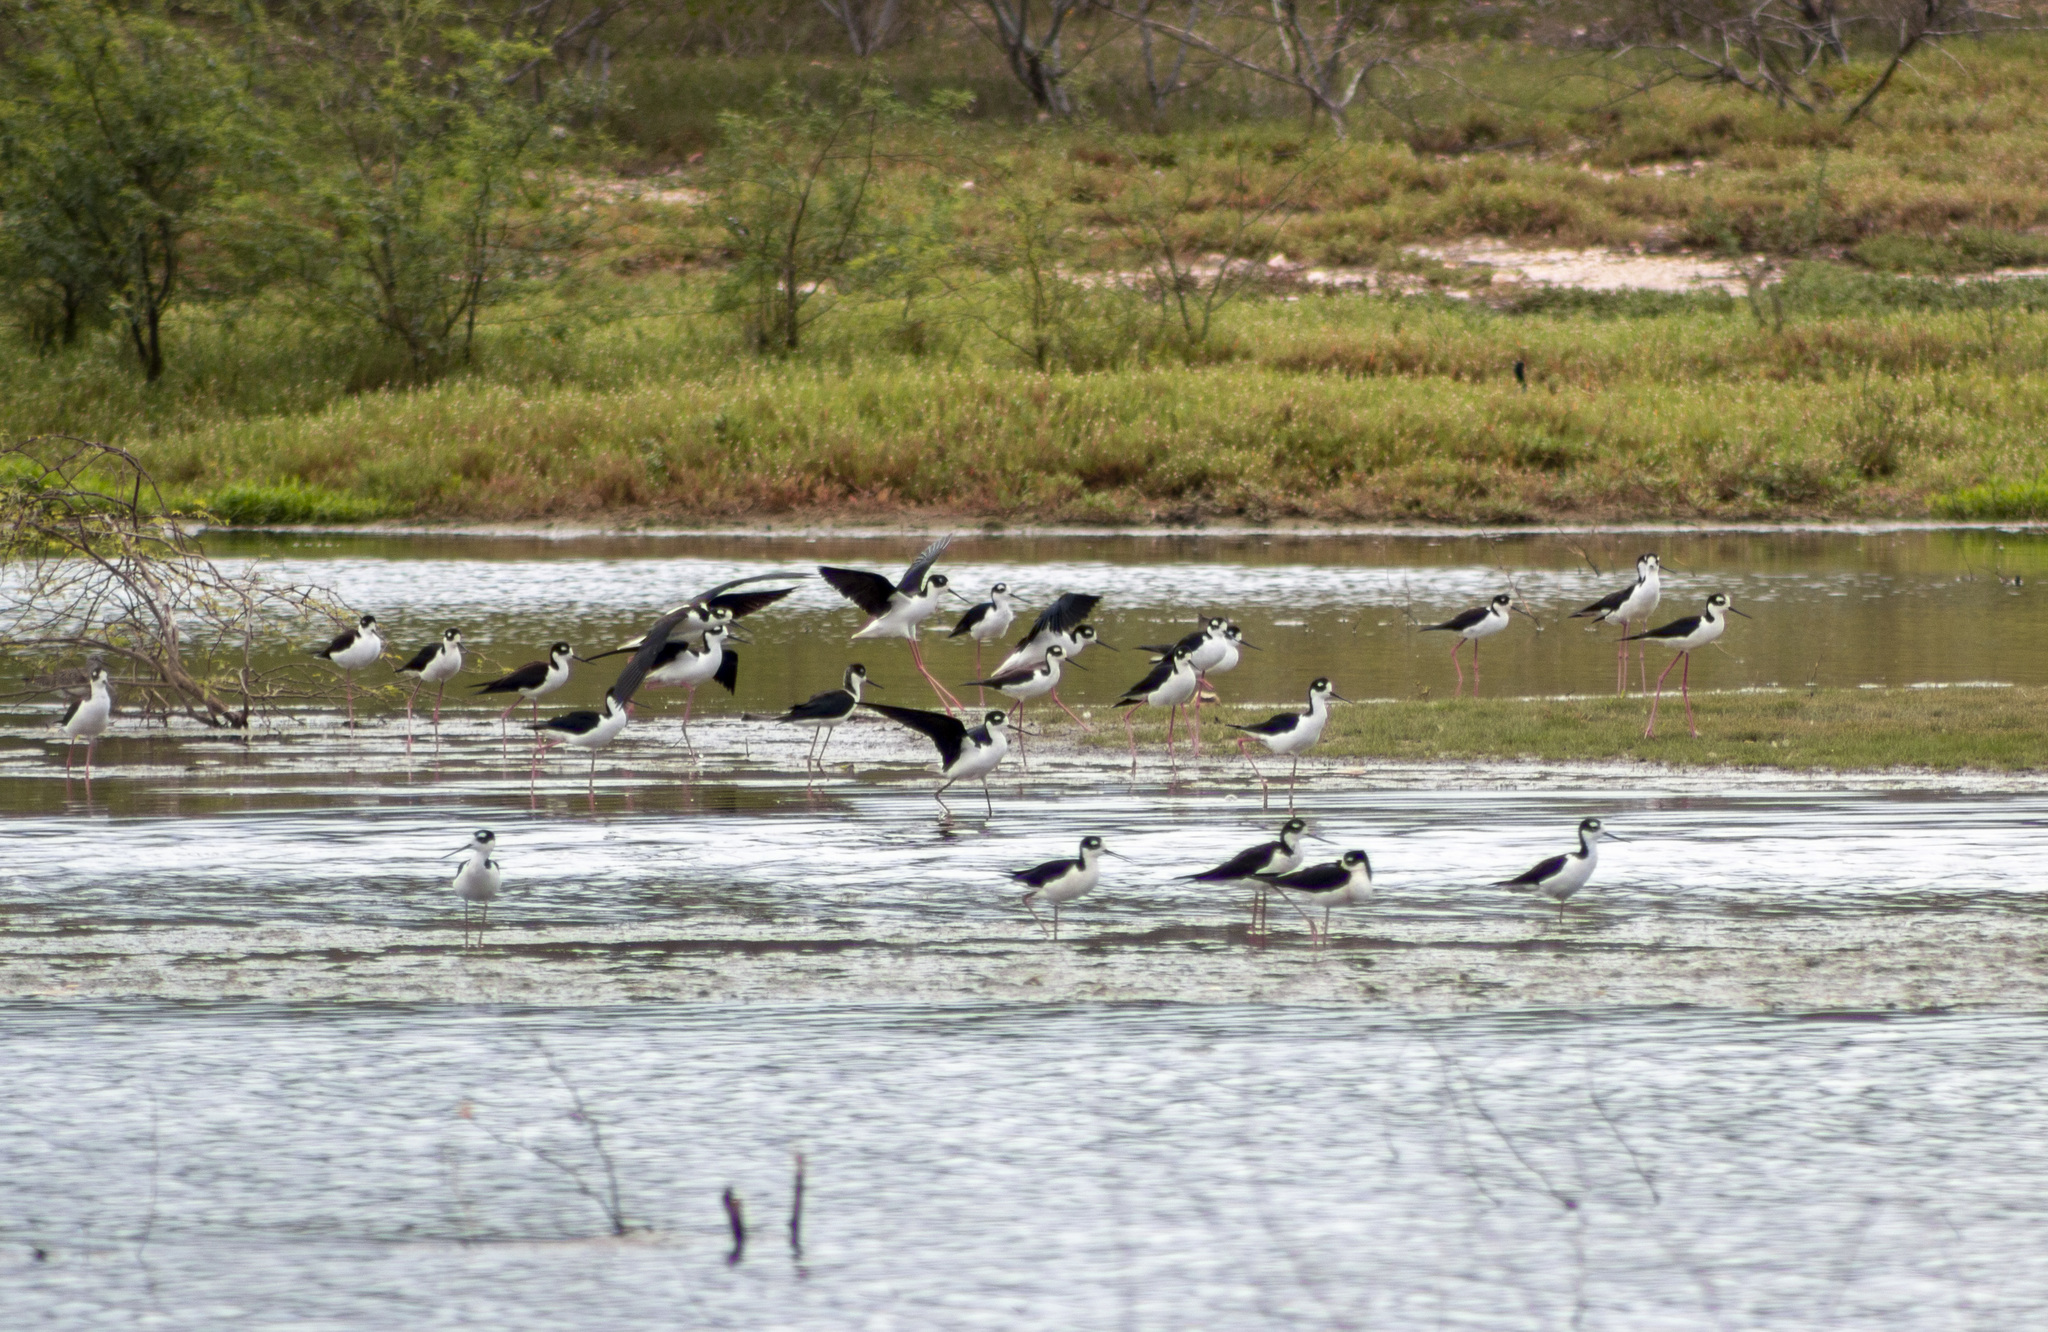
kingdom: Animalia
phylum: Chordata
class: Aves
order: Charadriiformes
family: Recurvirostridae
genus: Himantopus
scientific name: Himantopus mexicanus
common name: Black-necked stilt
